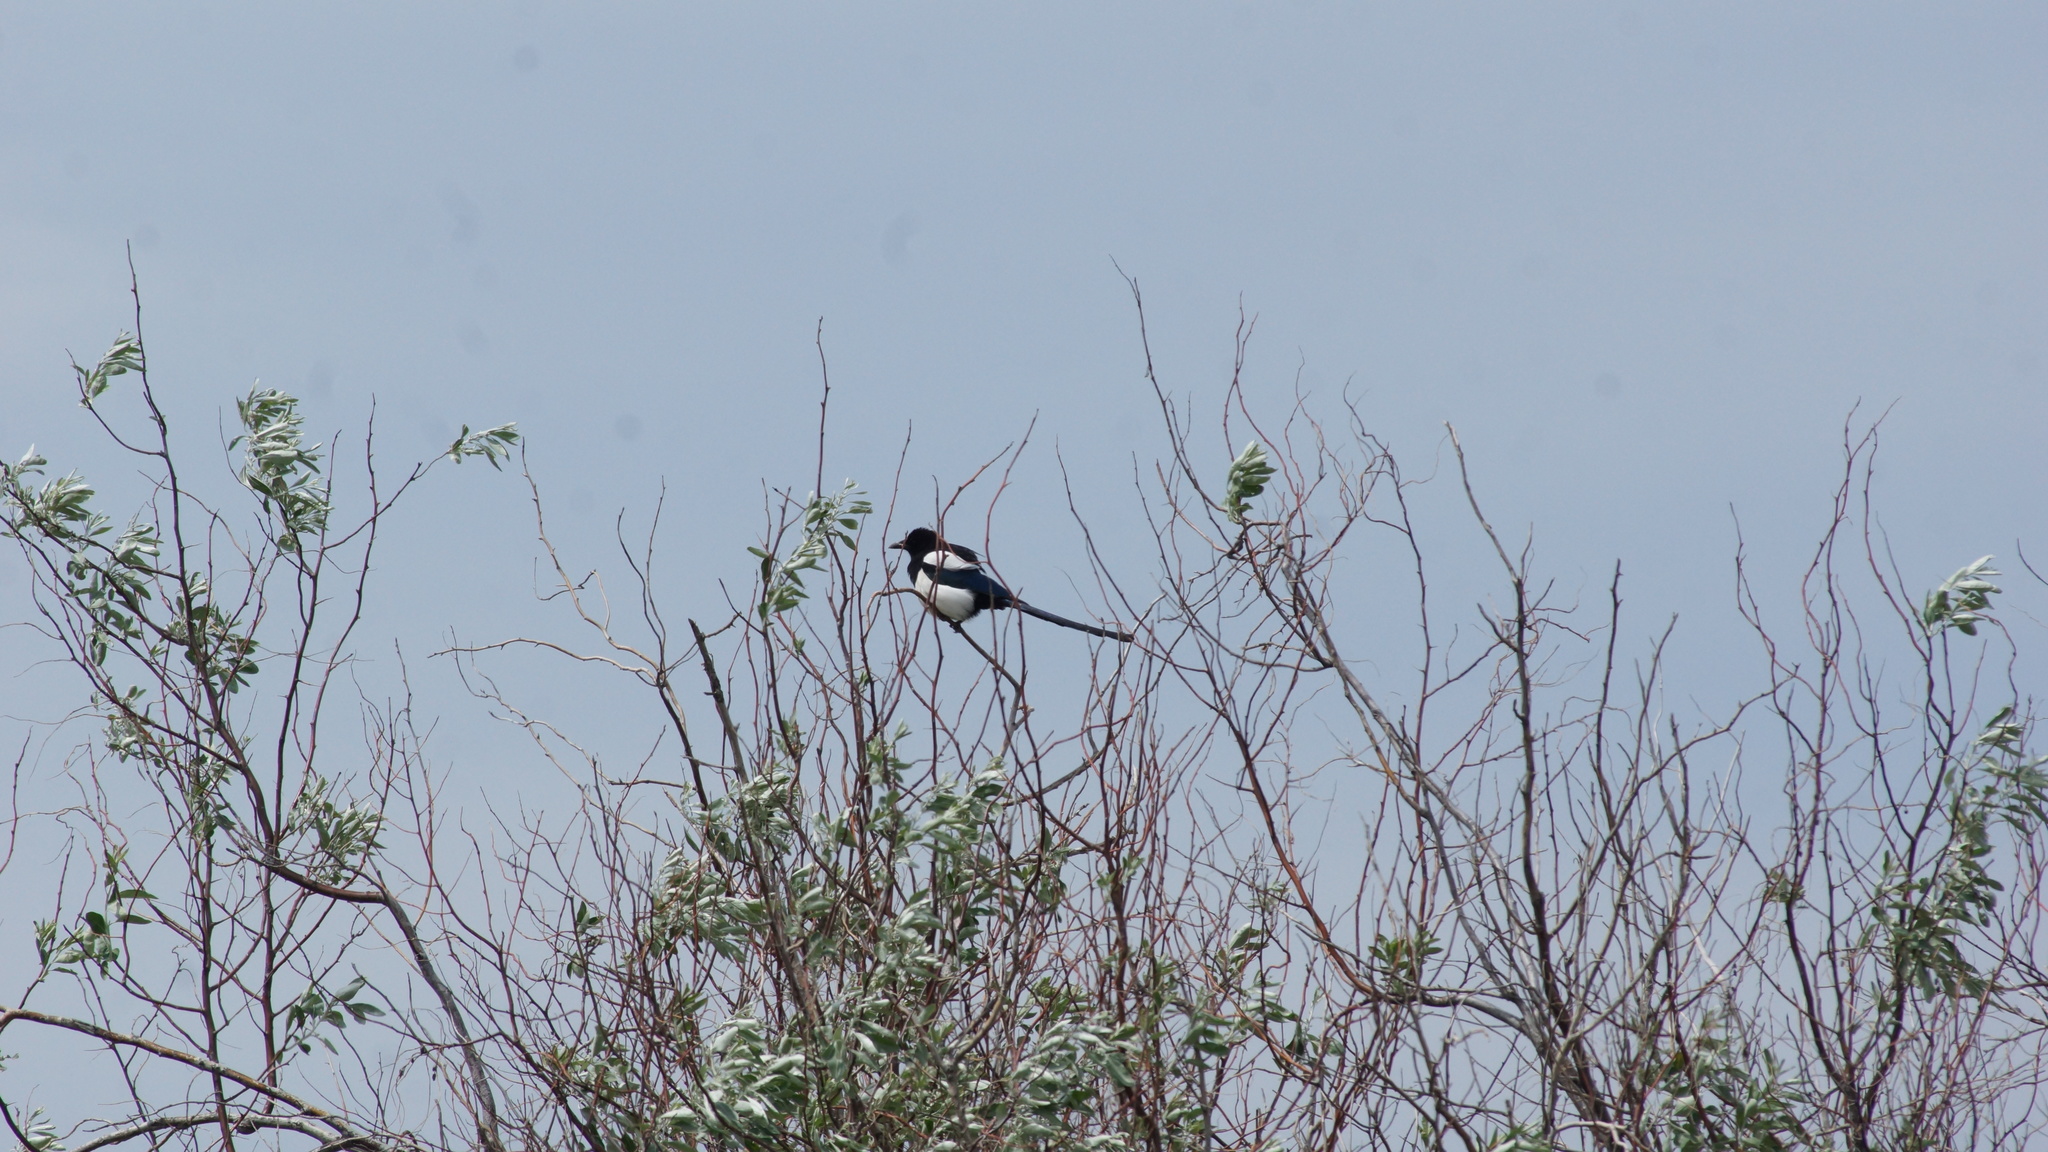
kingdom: Animalia
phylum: Chordata
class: Aves
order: Passeriformes
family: Corvidae
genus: Pica
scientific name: Pica pica
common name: Eurasian magpie
